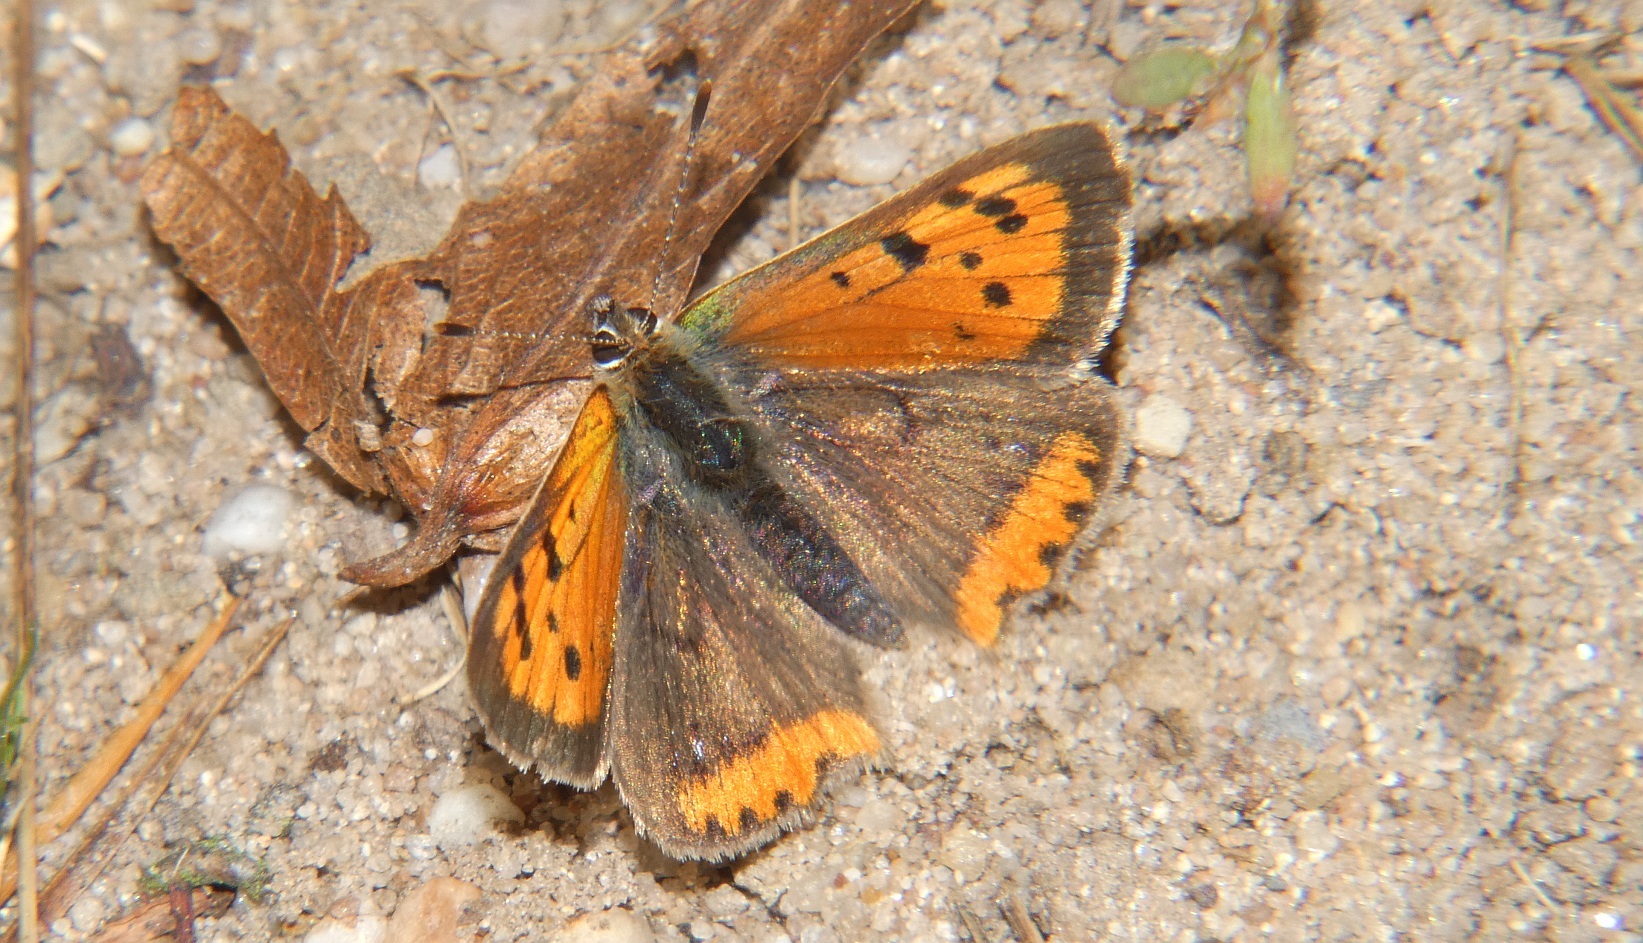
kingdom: Animalia
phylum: Arthropoda
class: Insecta
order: Lepidoptera
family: Lycaenidae
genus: Lycaena
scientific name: Lycaena phlaeas
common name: Small copper
